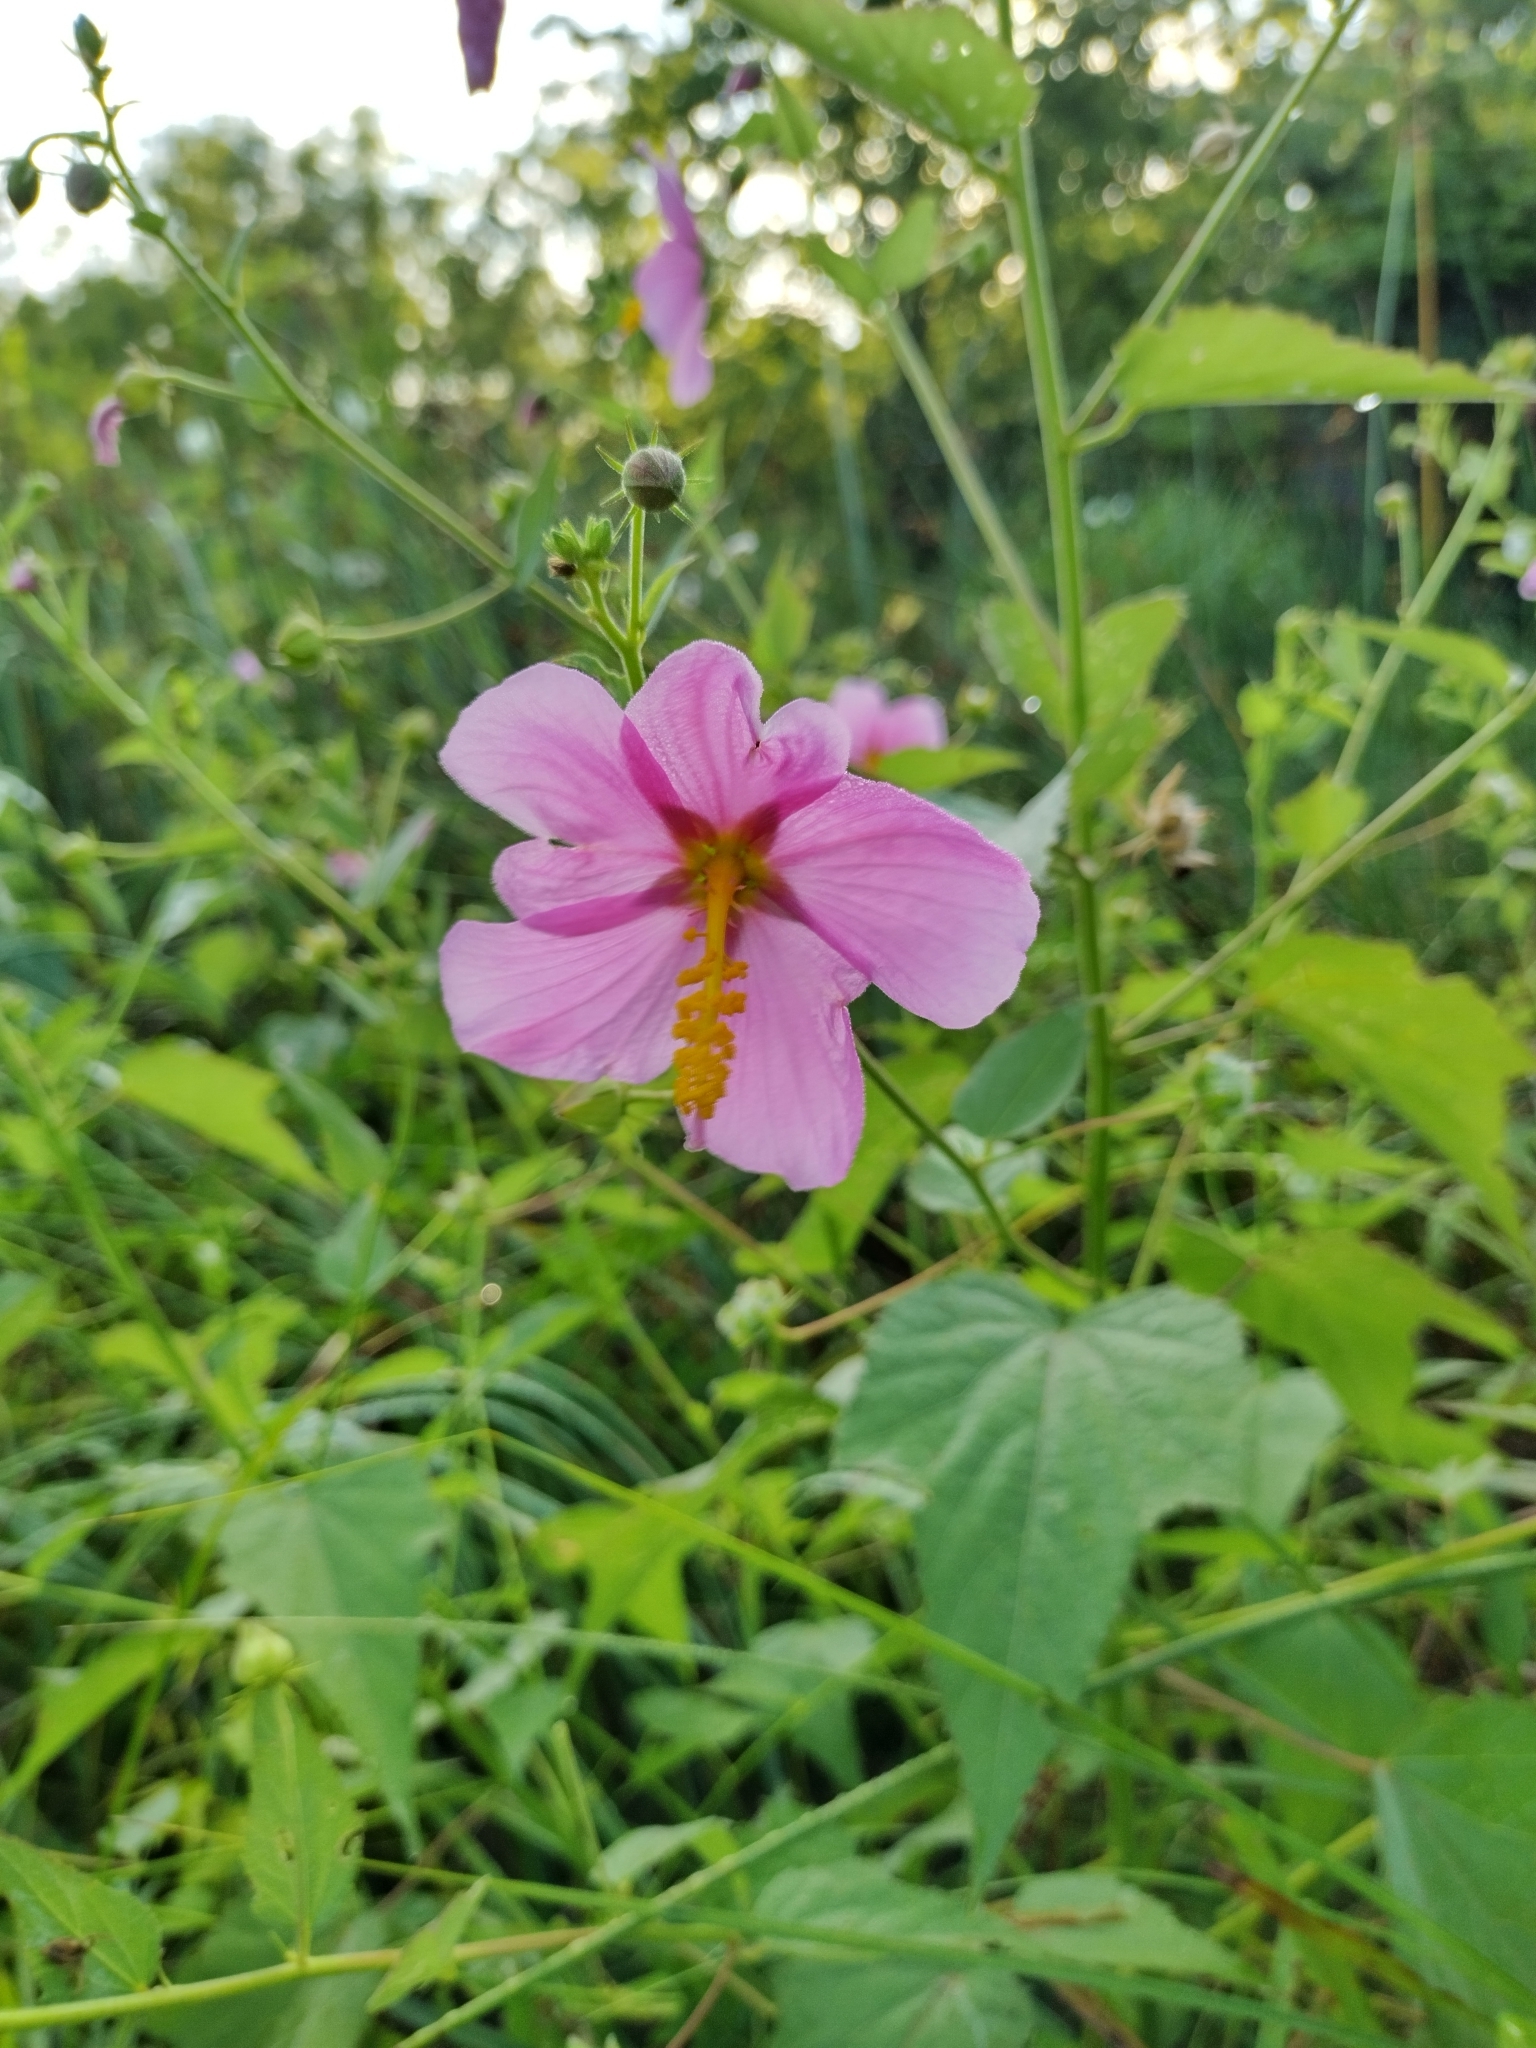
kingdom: Plantae
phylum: Tracheophyta
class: Magnoliopsida
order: Malvales
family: Malvaceae
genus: Kosteletzkya
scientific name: Kosteletzkya pentacarpos
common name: Virginia saltmarsh mallow
